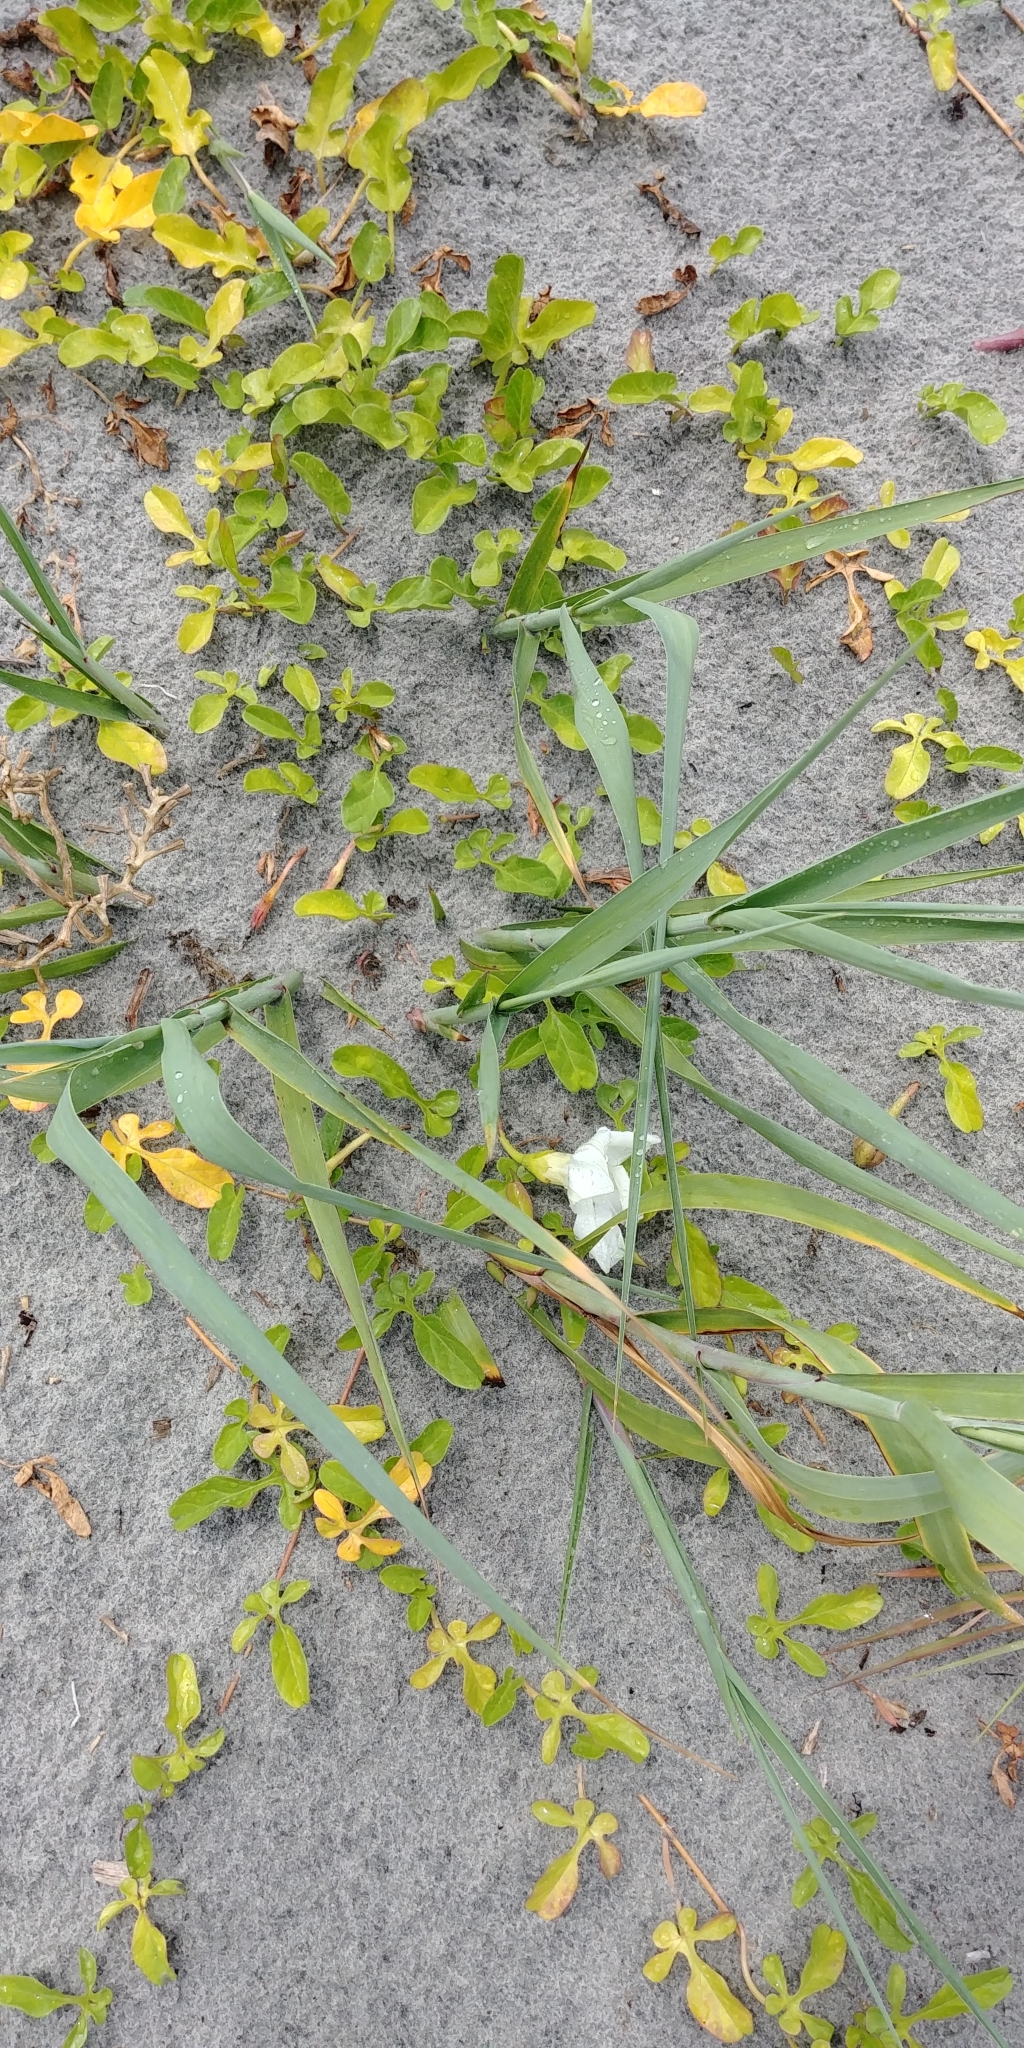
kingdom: Plantae
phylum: Tracheophyta
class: Magnoliopsida
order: Solanales
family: Convolvulaceae
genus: Ipomoea
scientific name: Ipomoea imperati
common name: Fiddle-leaf morning-glory
